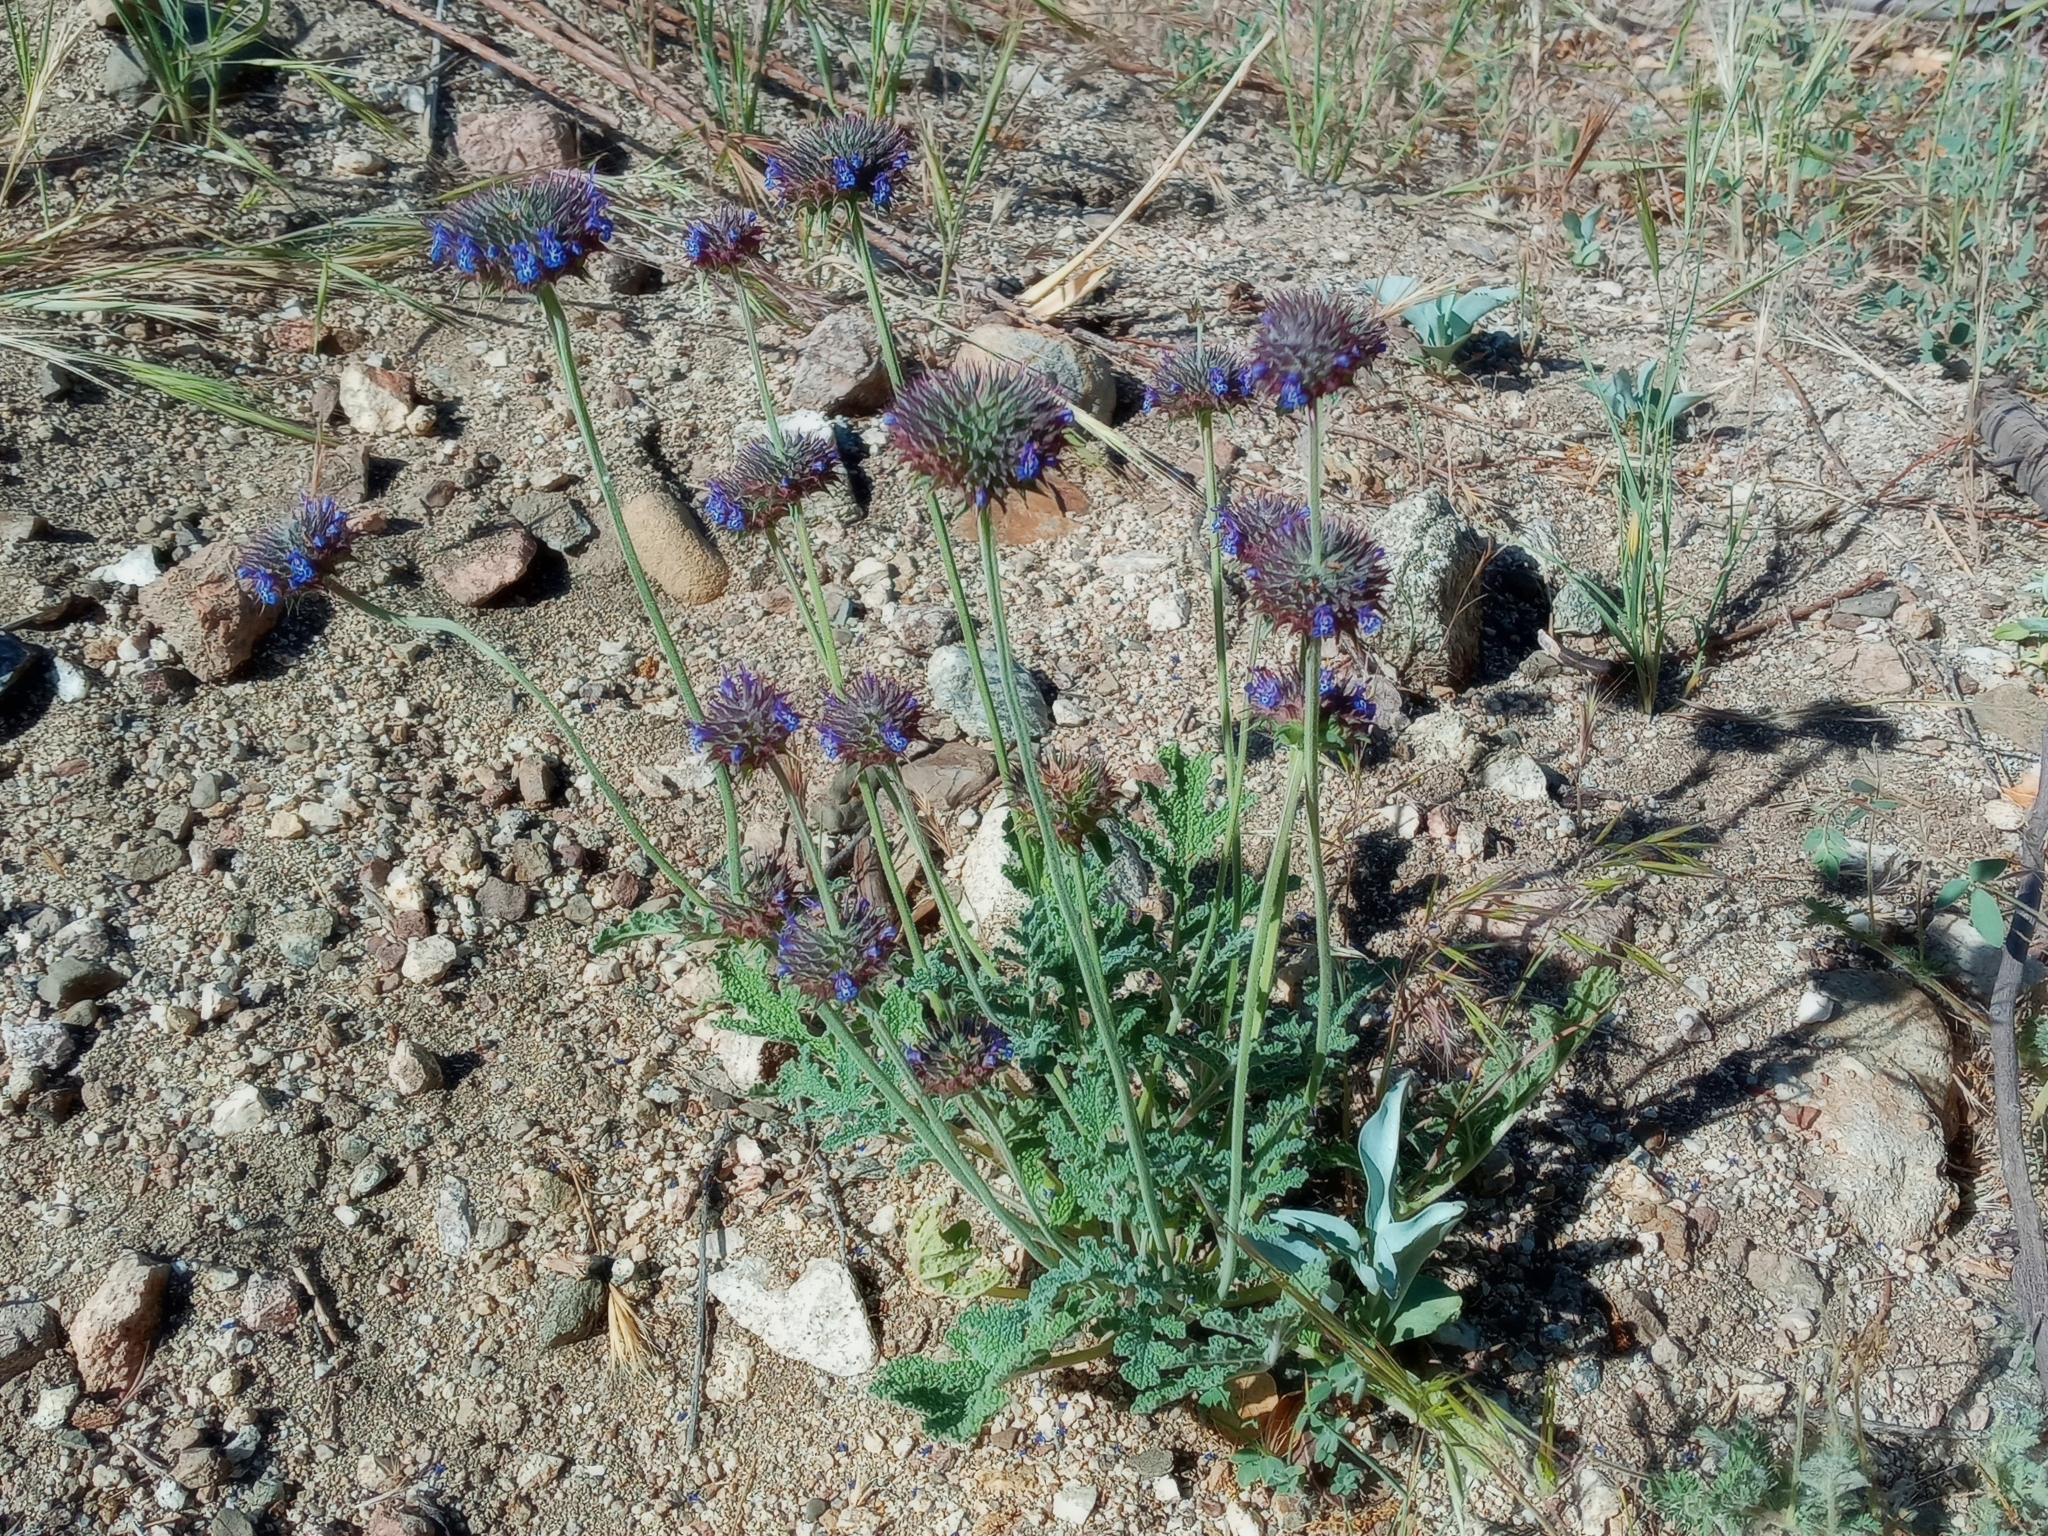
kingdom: Plantae
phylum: Tracheophyta
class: Magnoliopsida
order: Lamiales
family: Lamiaceae
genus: Salvia
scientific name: Salvia columbariae
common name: Chia
